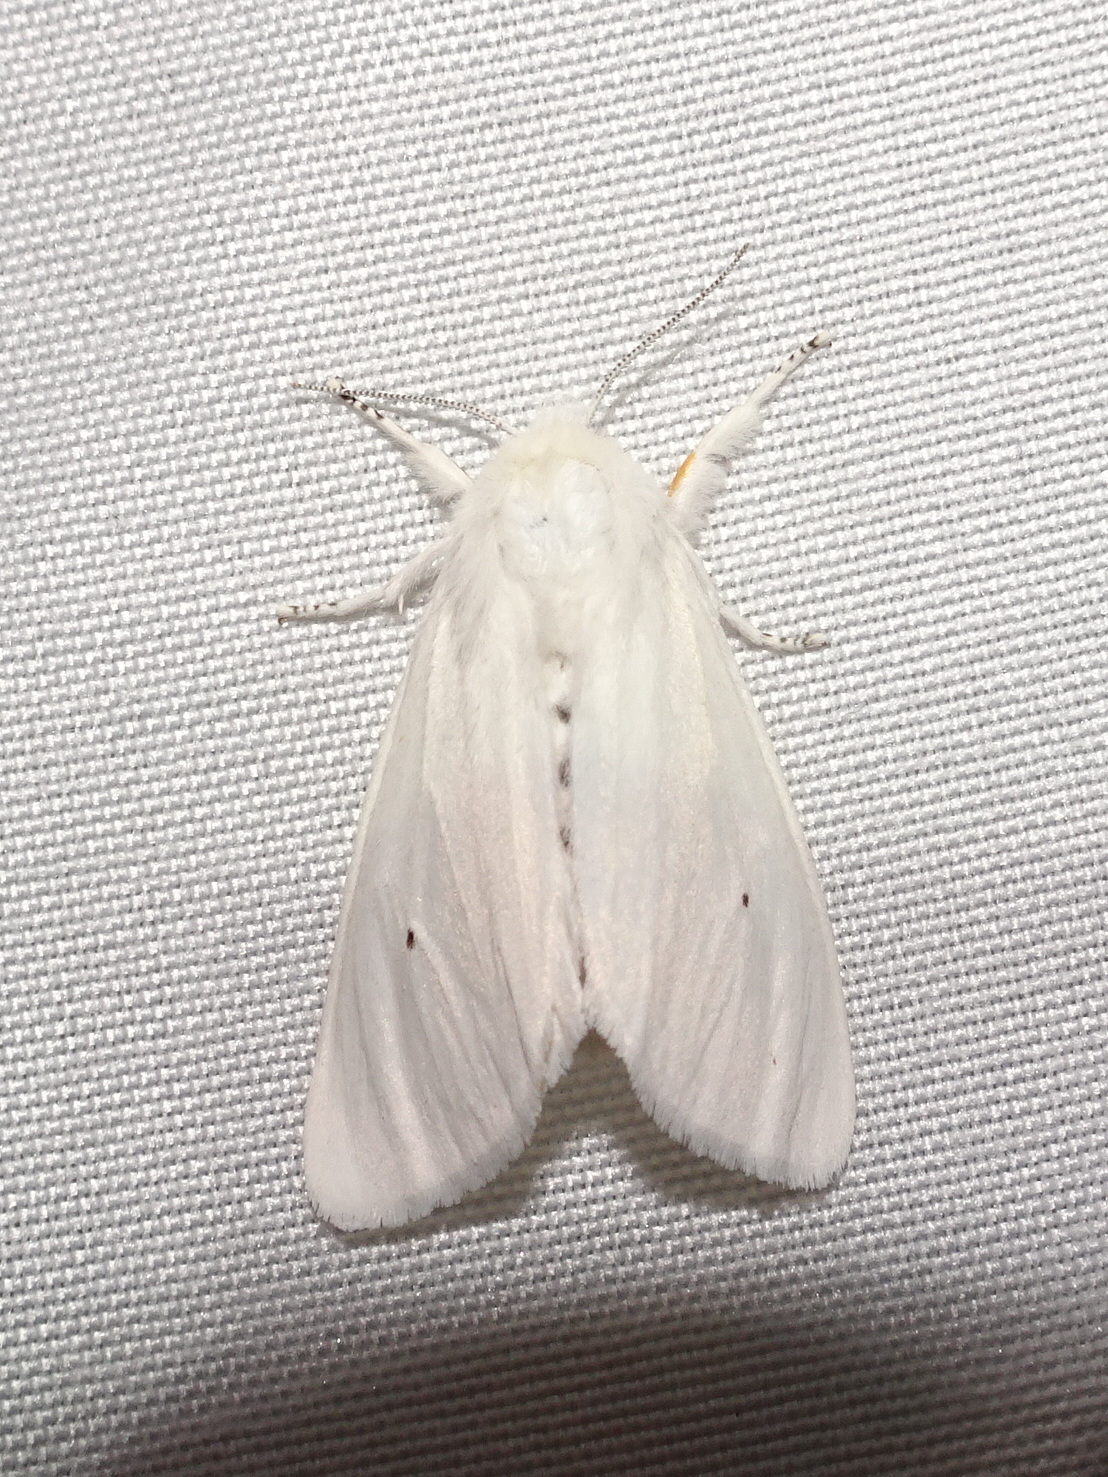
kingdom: Animalia
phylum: Arthropoda
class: Insecta
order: Lepidoptera
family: Erebidae
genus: Spilosoma
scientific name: Spilosoma virginica
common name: Virginia tiger moth
